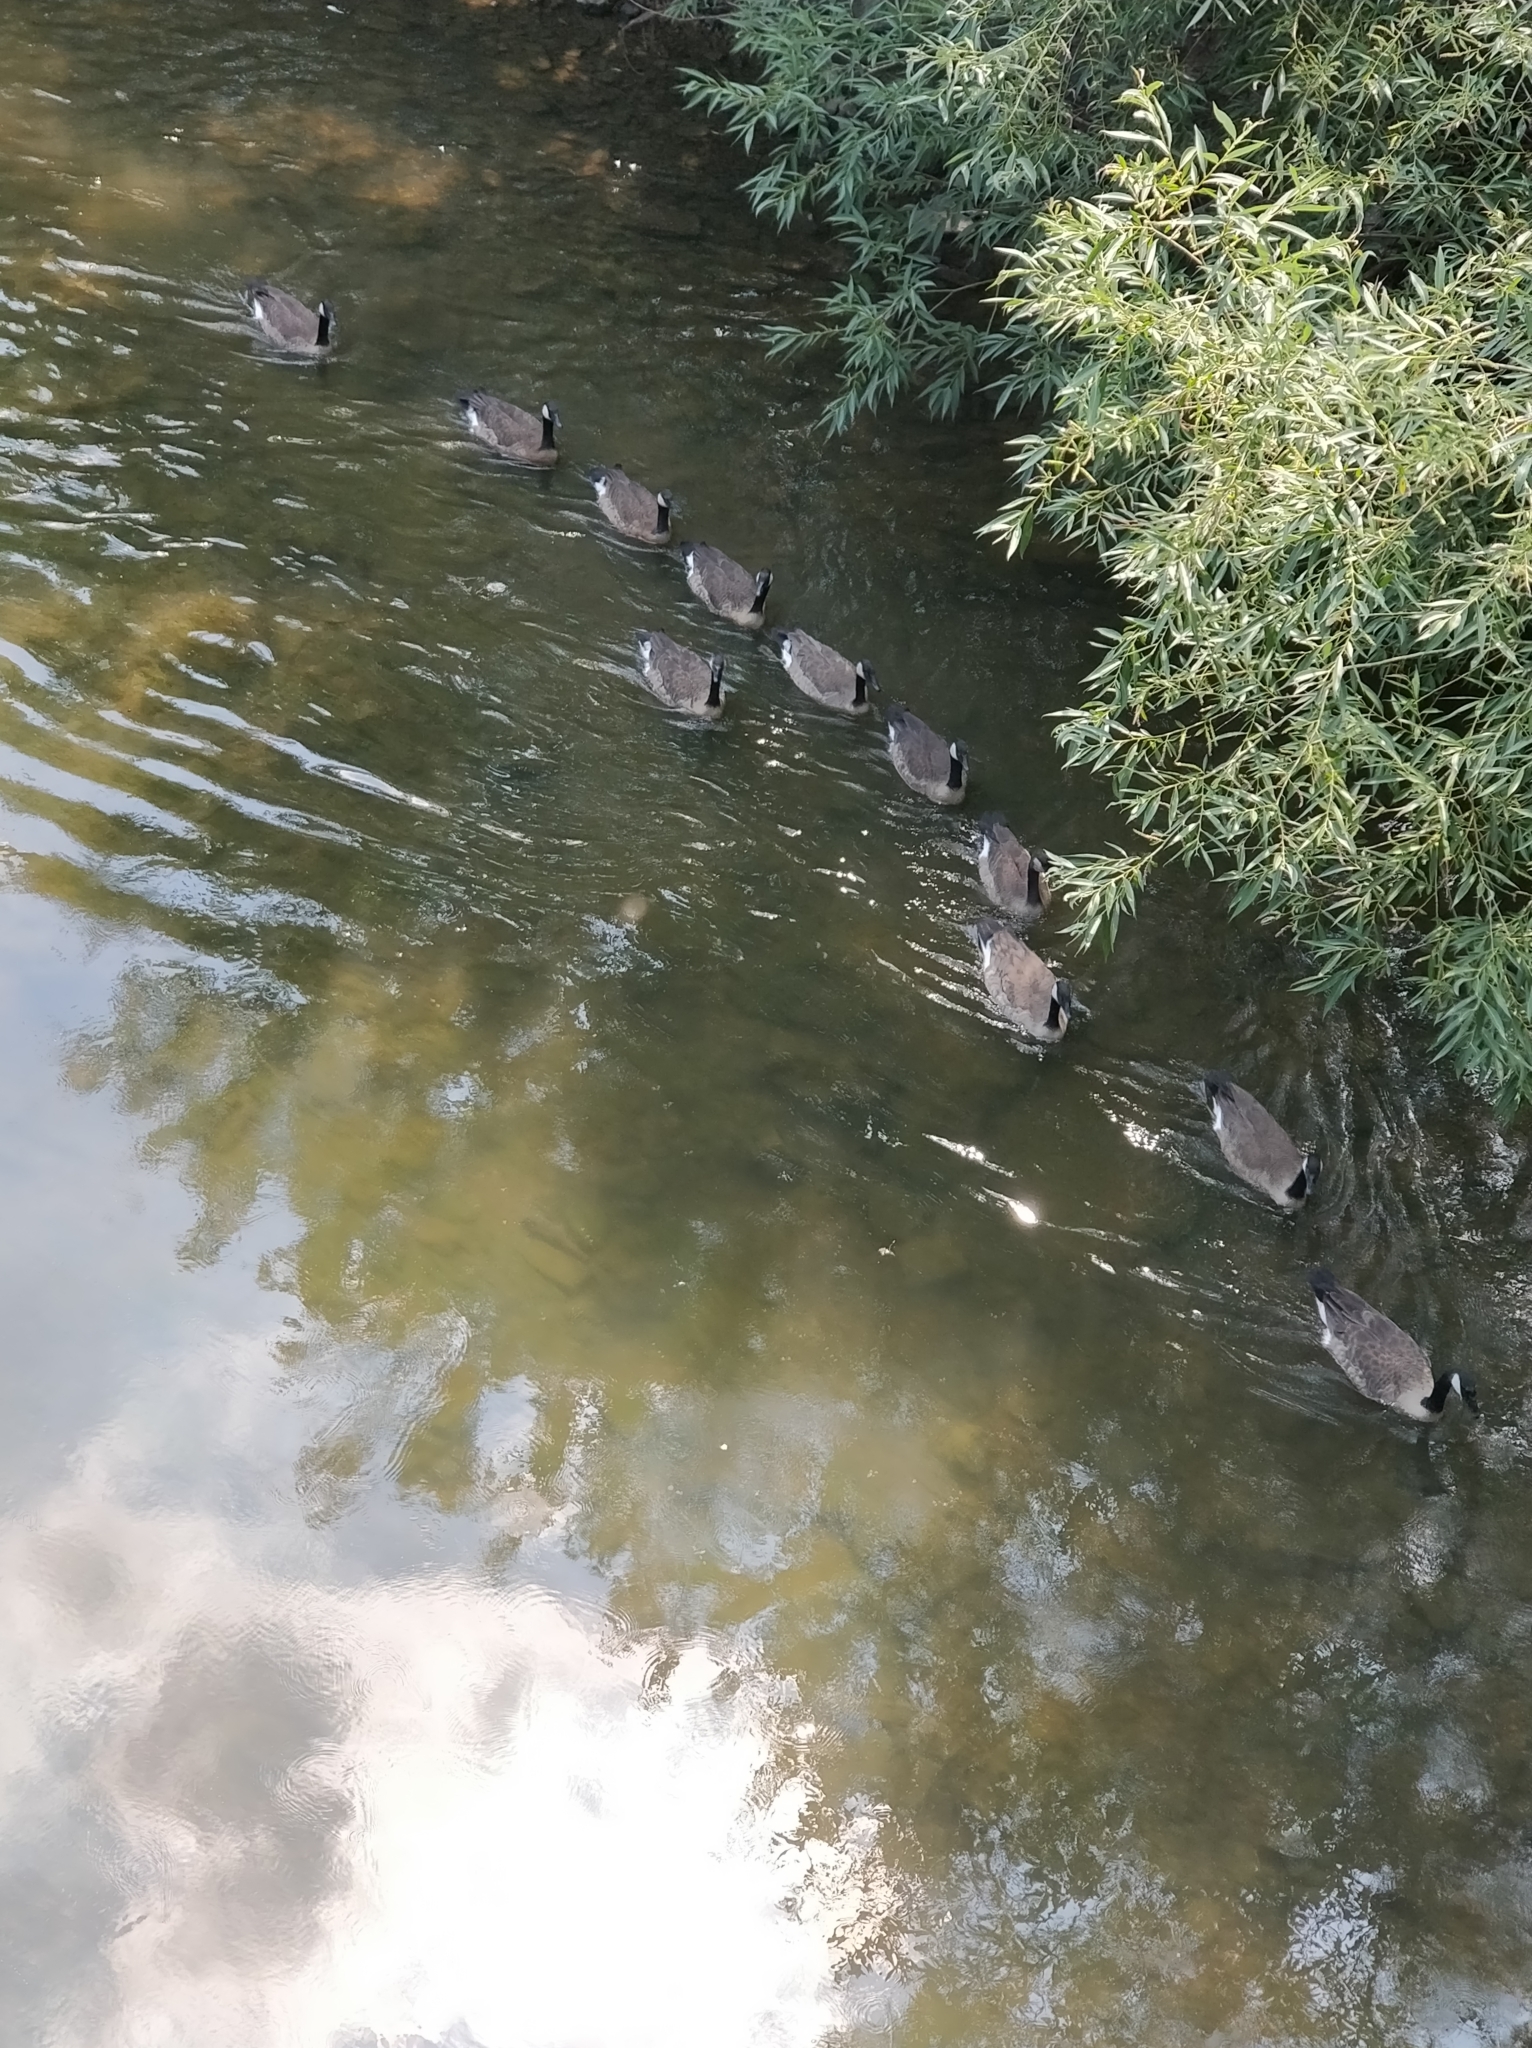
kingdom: Animalia
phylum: Chordata
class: Aves
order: Anseriformes
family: Anatidae
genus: Branta
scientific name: Branta canadensis
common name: Canada goose
